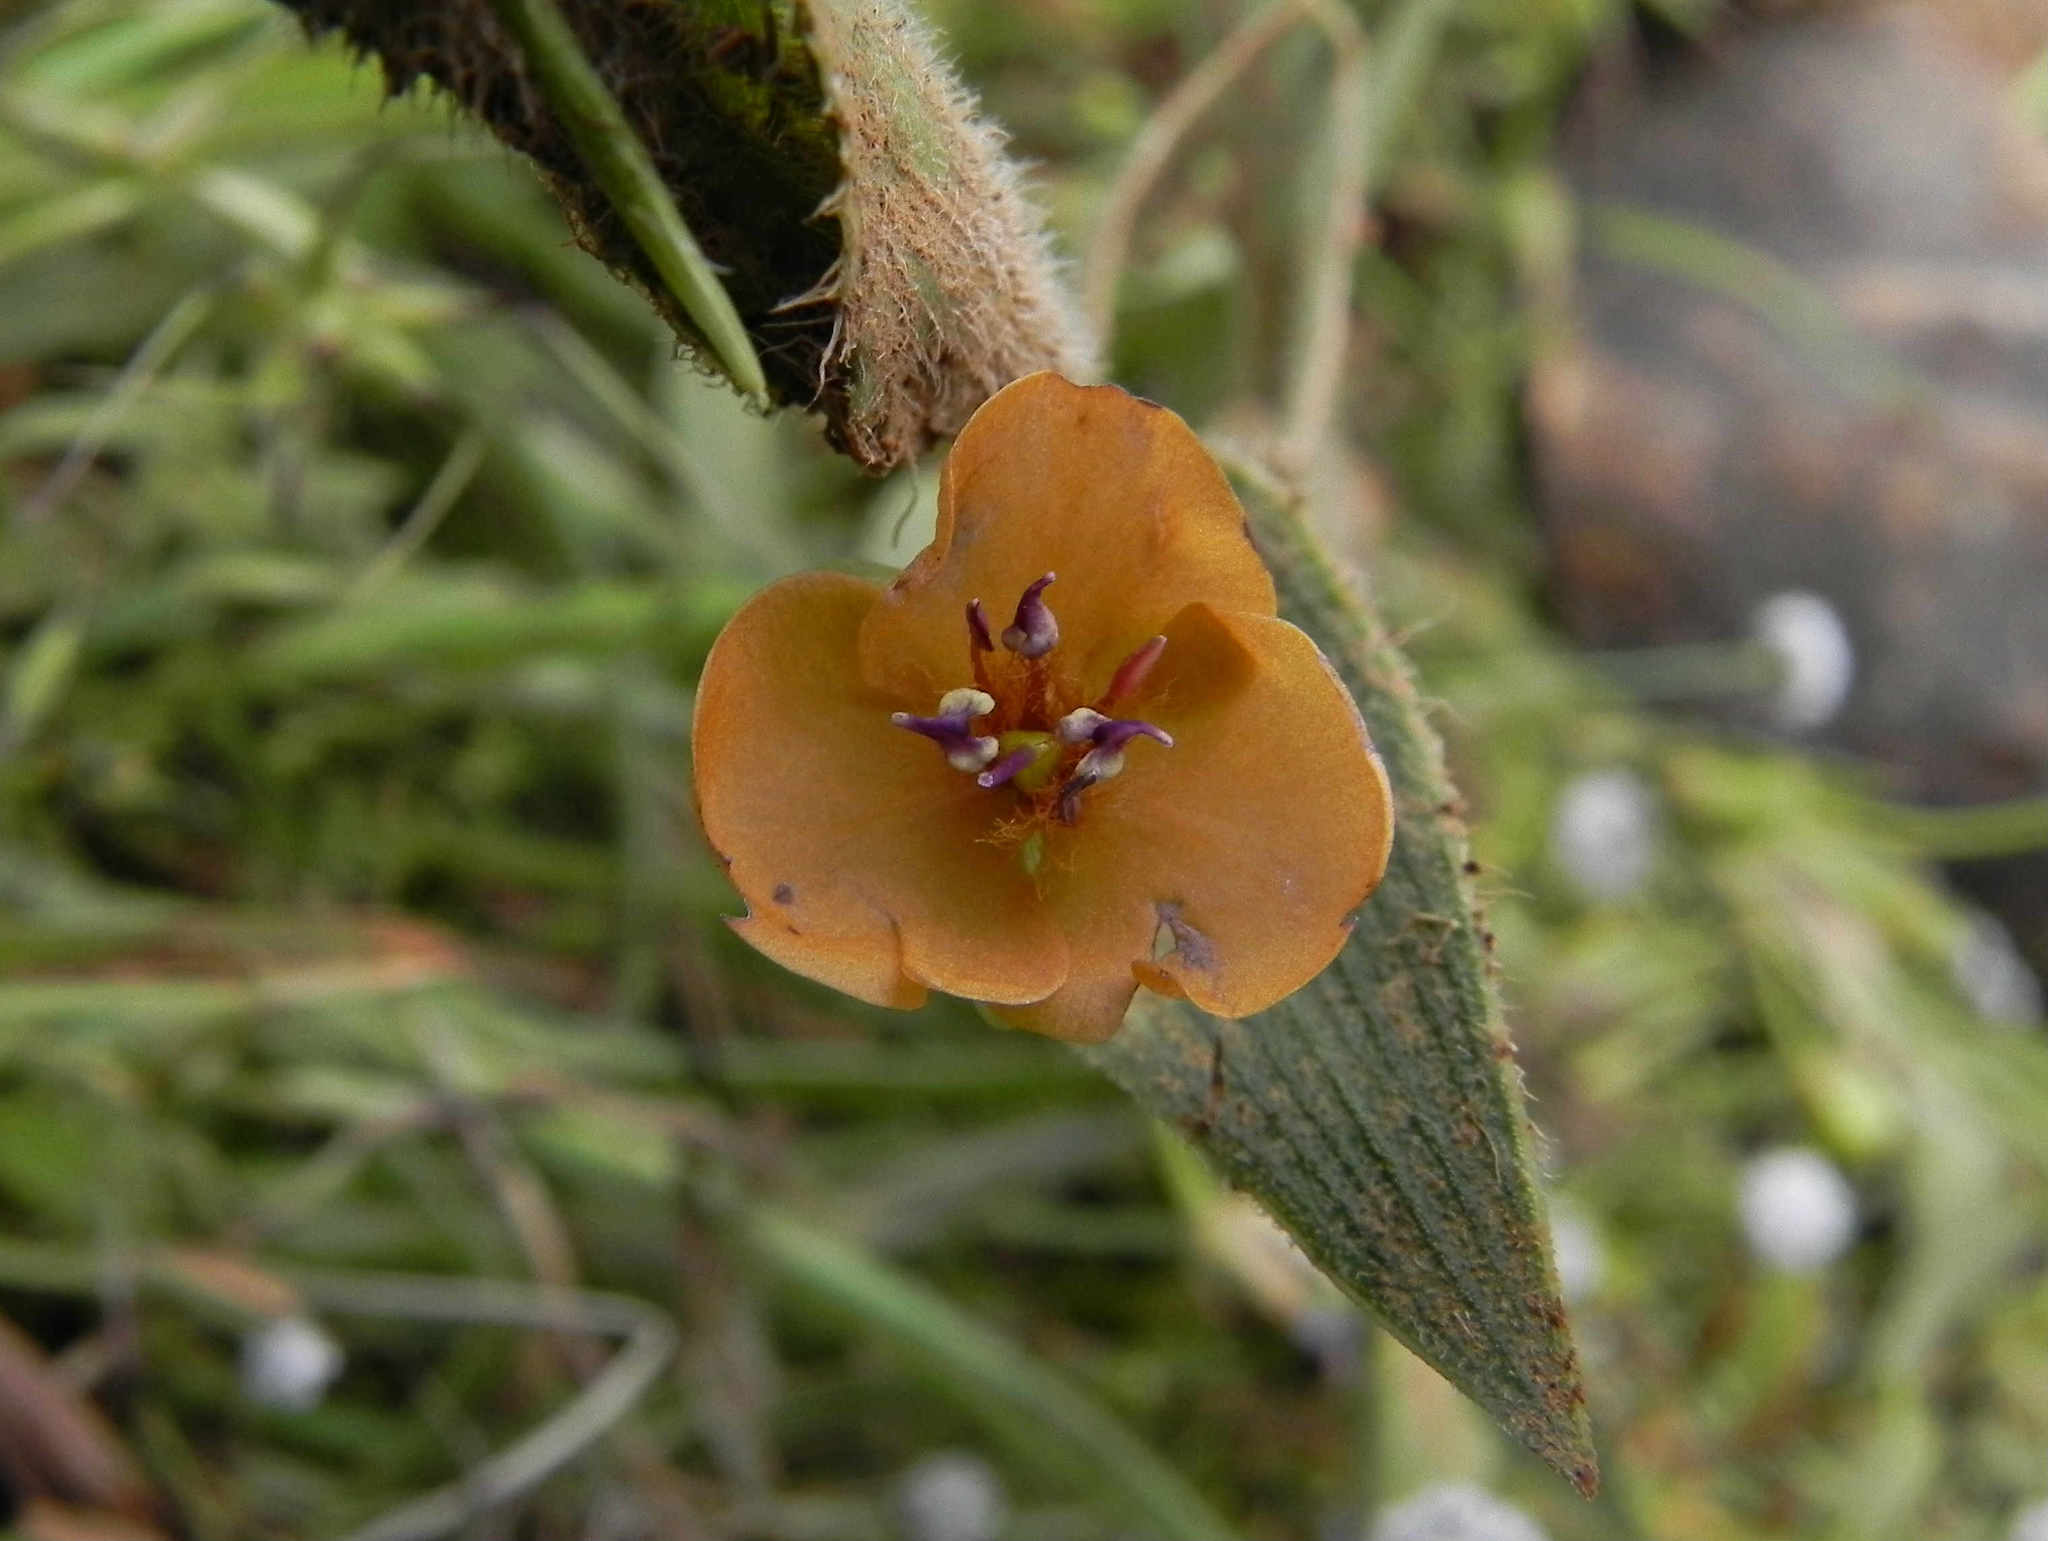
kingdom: Plantae
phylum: Tracheophyta
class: Liliopsida
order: Commelinales
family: Commelinaceae
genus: Murdannia
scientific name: Murdannia lanuginosa
